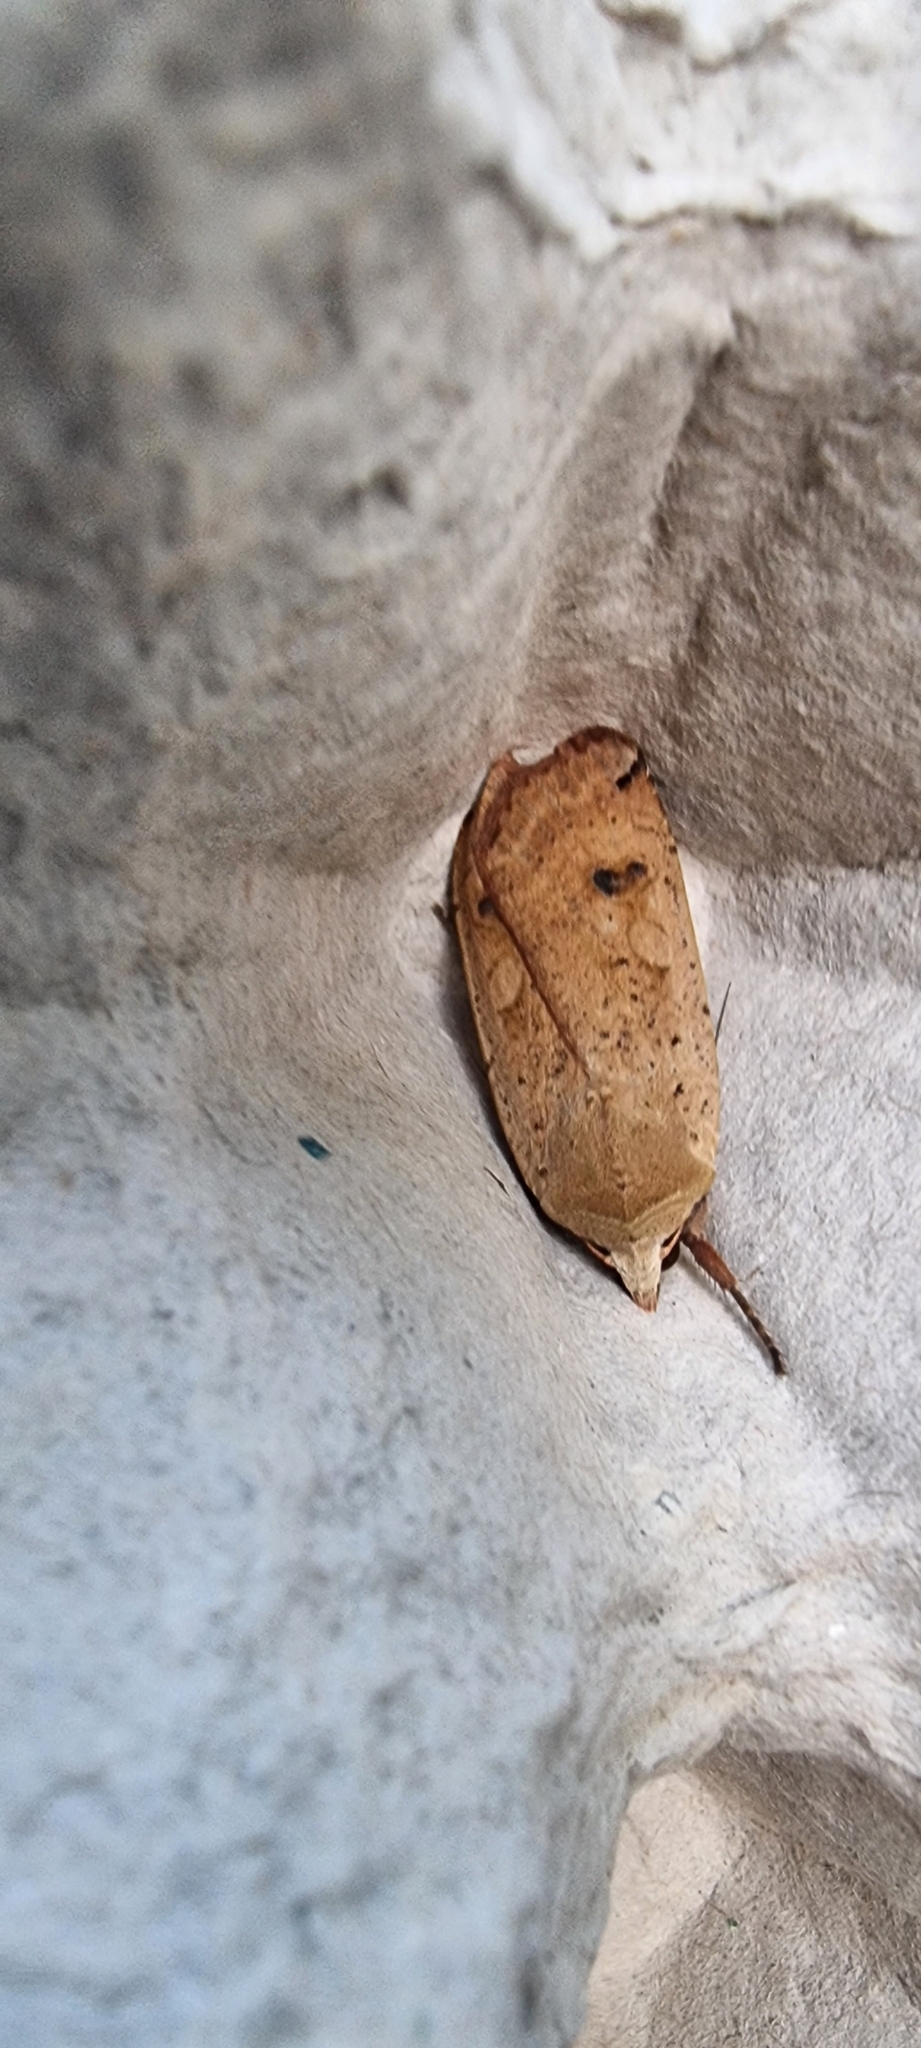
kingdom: Animalia
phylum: Arthropoda
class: Insecta
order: Lepidoptera
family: Noctuidae
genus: Noctua
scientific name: Noctua pronuba
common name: Large yellow underwing
